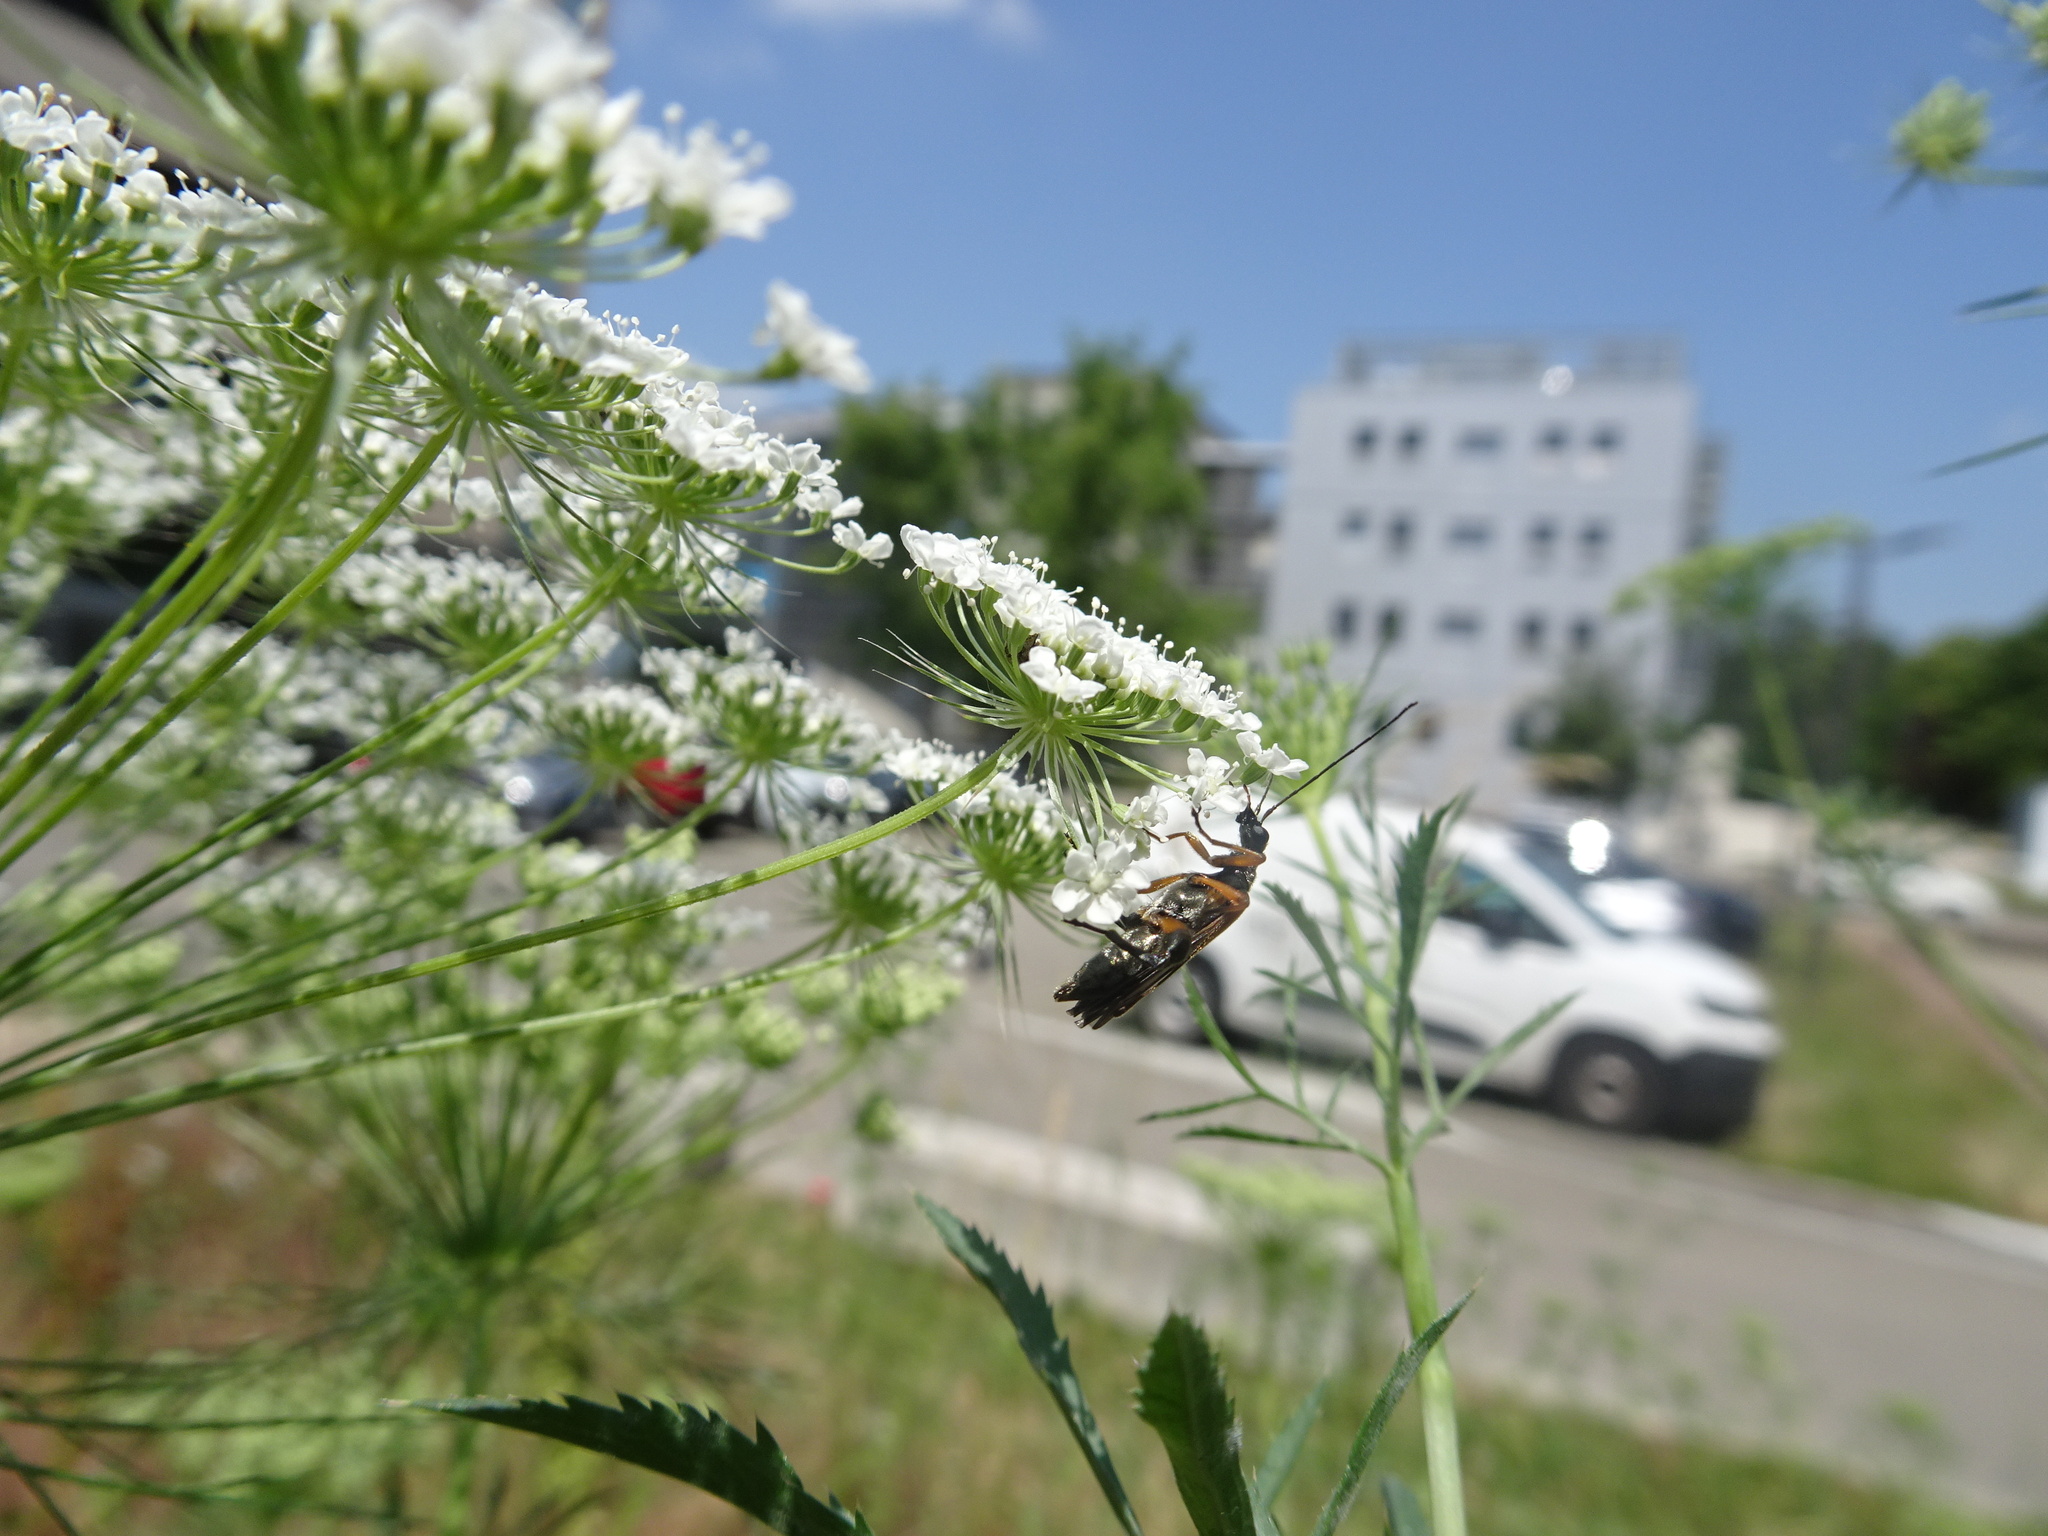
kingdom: Animalia
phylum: Arthropoda
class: Insecta
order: Coleoptera
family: Oedemeridae
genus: Oedemera
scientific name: Oedemera podagrariae
